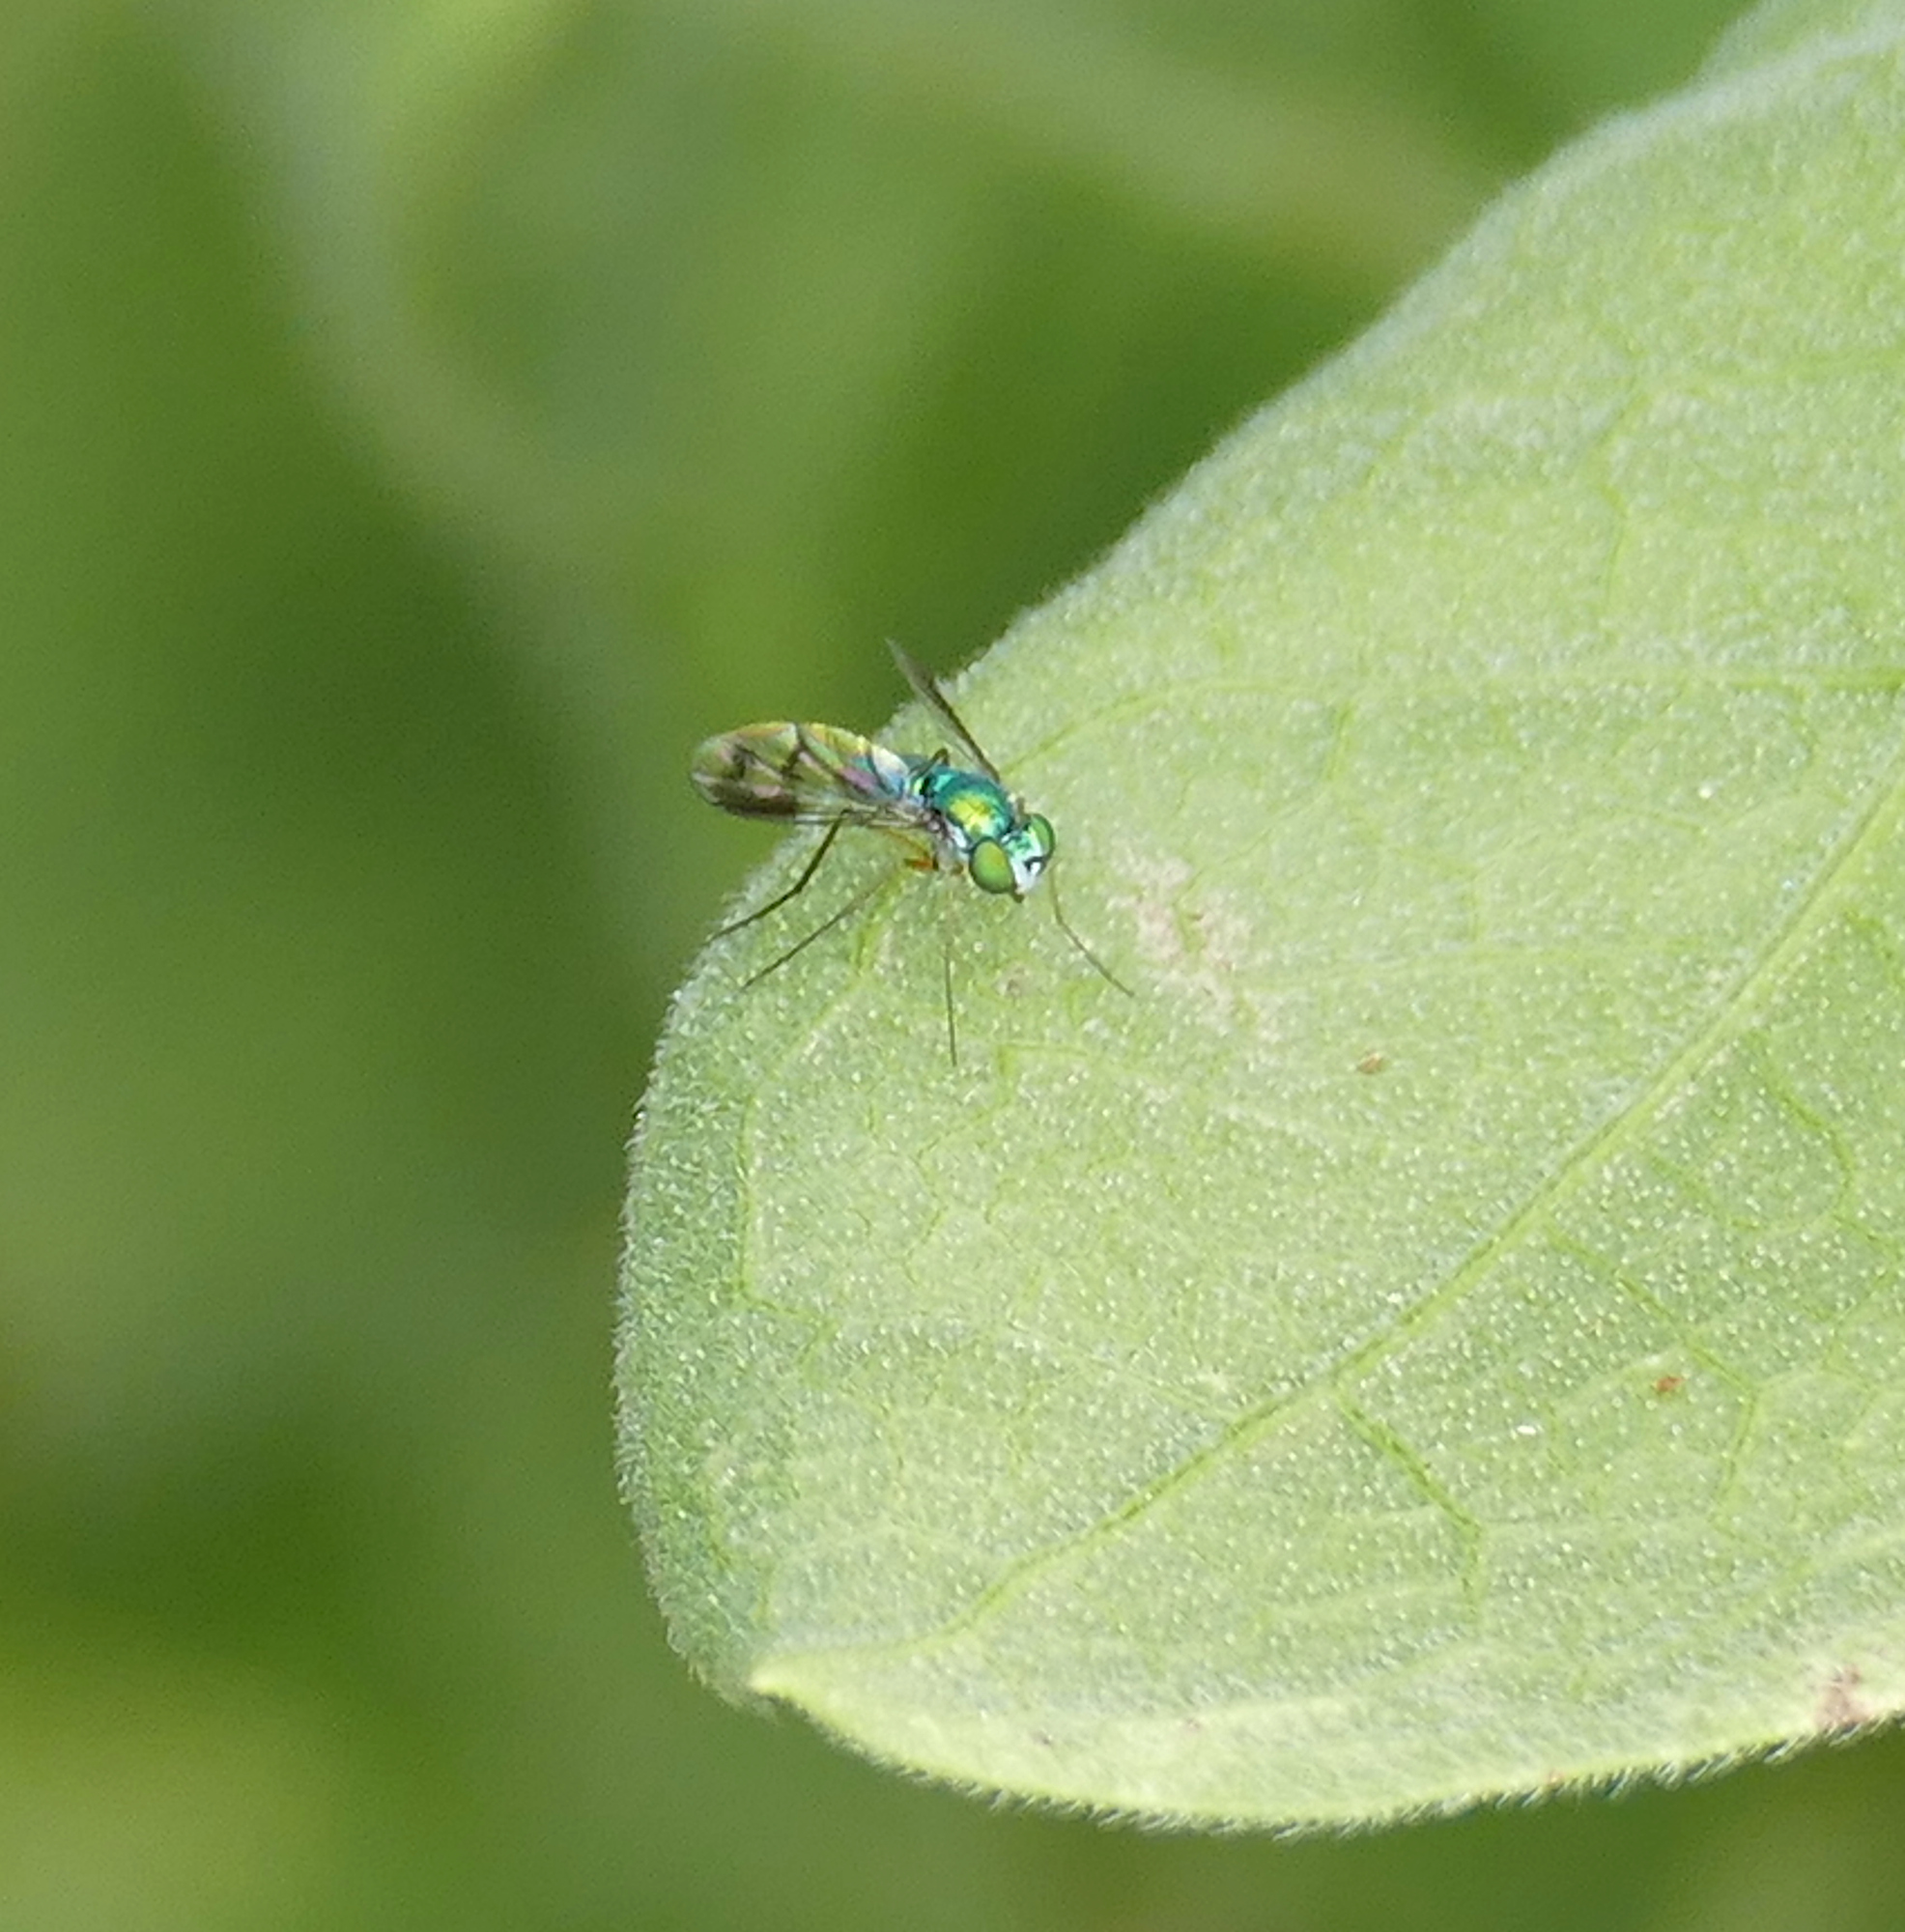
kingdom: Animalia
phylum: Arthropoda
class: Insecta
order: Diptera
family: Dolichopodidae
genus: Condylostylus
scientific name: Condylostylus quadricolor
